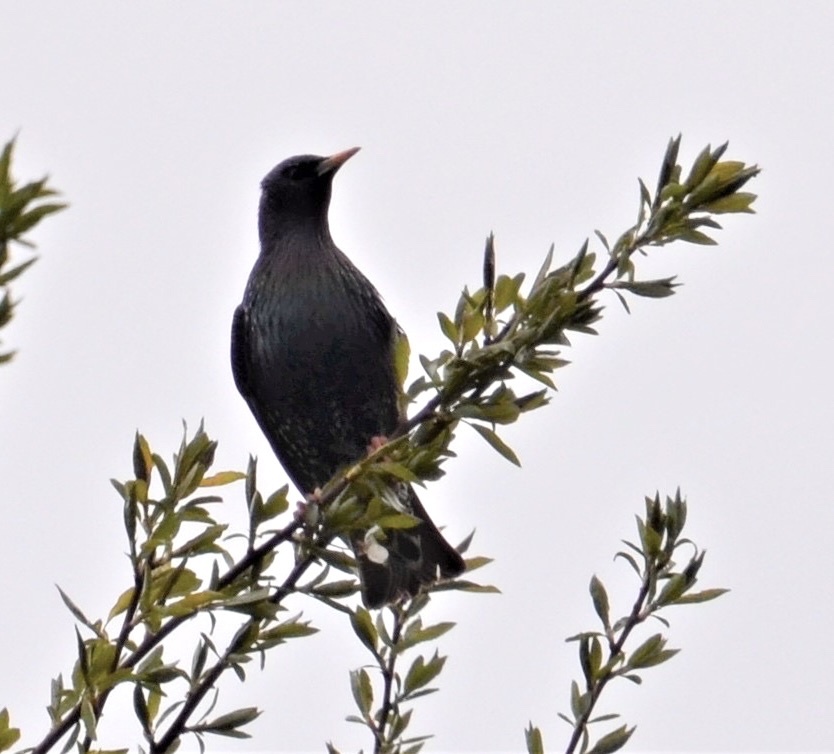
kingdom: Animalia
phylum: Chordata
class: Aves
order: Passeriformes
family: Sturnidae
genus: Sturnus
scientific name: Sturnus vulgaris
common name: Common starling
